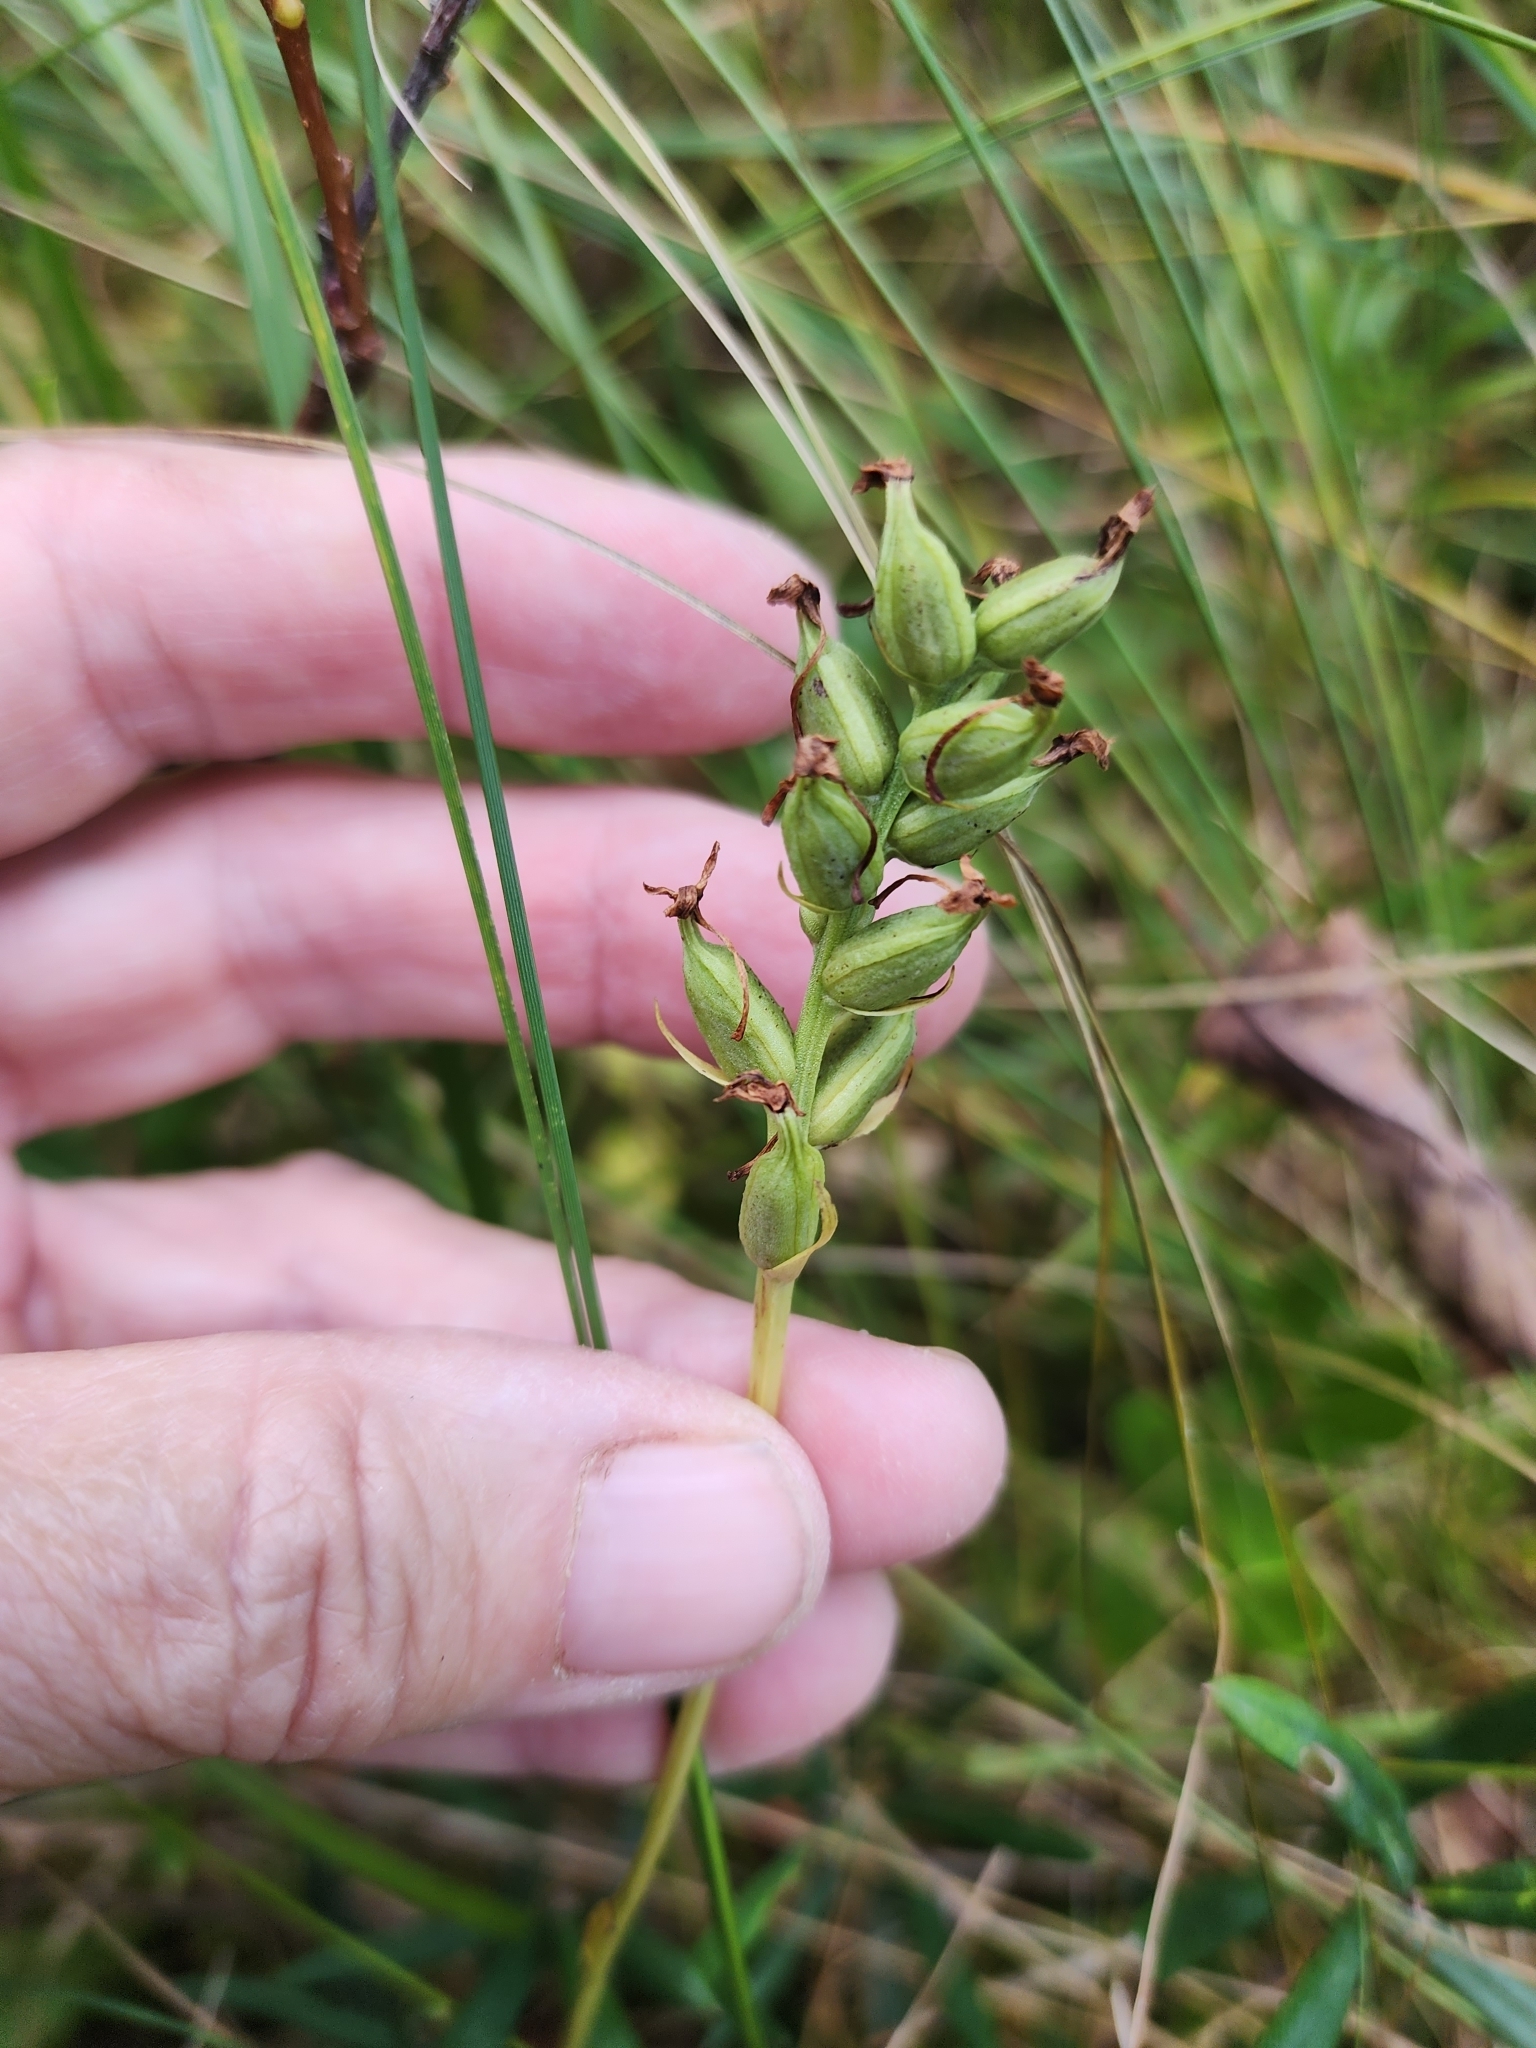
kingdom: Plantae
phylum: Tracheophyta
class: Liliopsida
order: Asparagales
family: Orchidaceae
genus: Platanthera
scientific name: Platanthera clavellata
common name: Club-spur orchid
